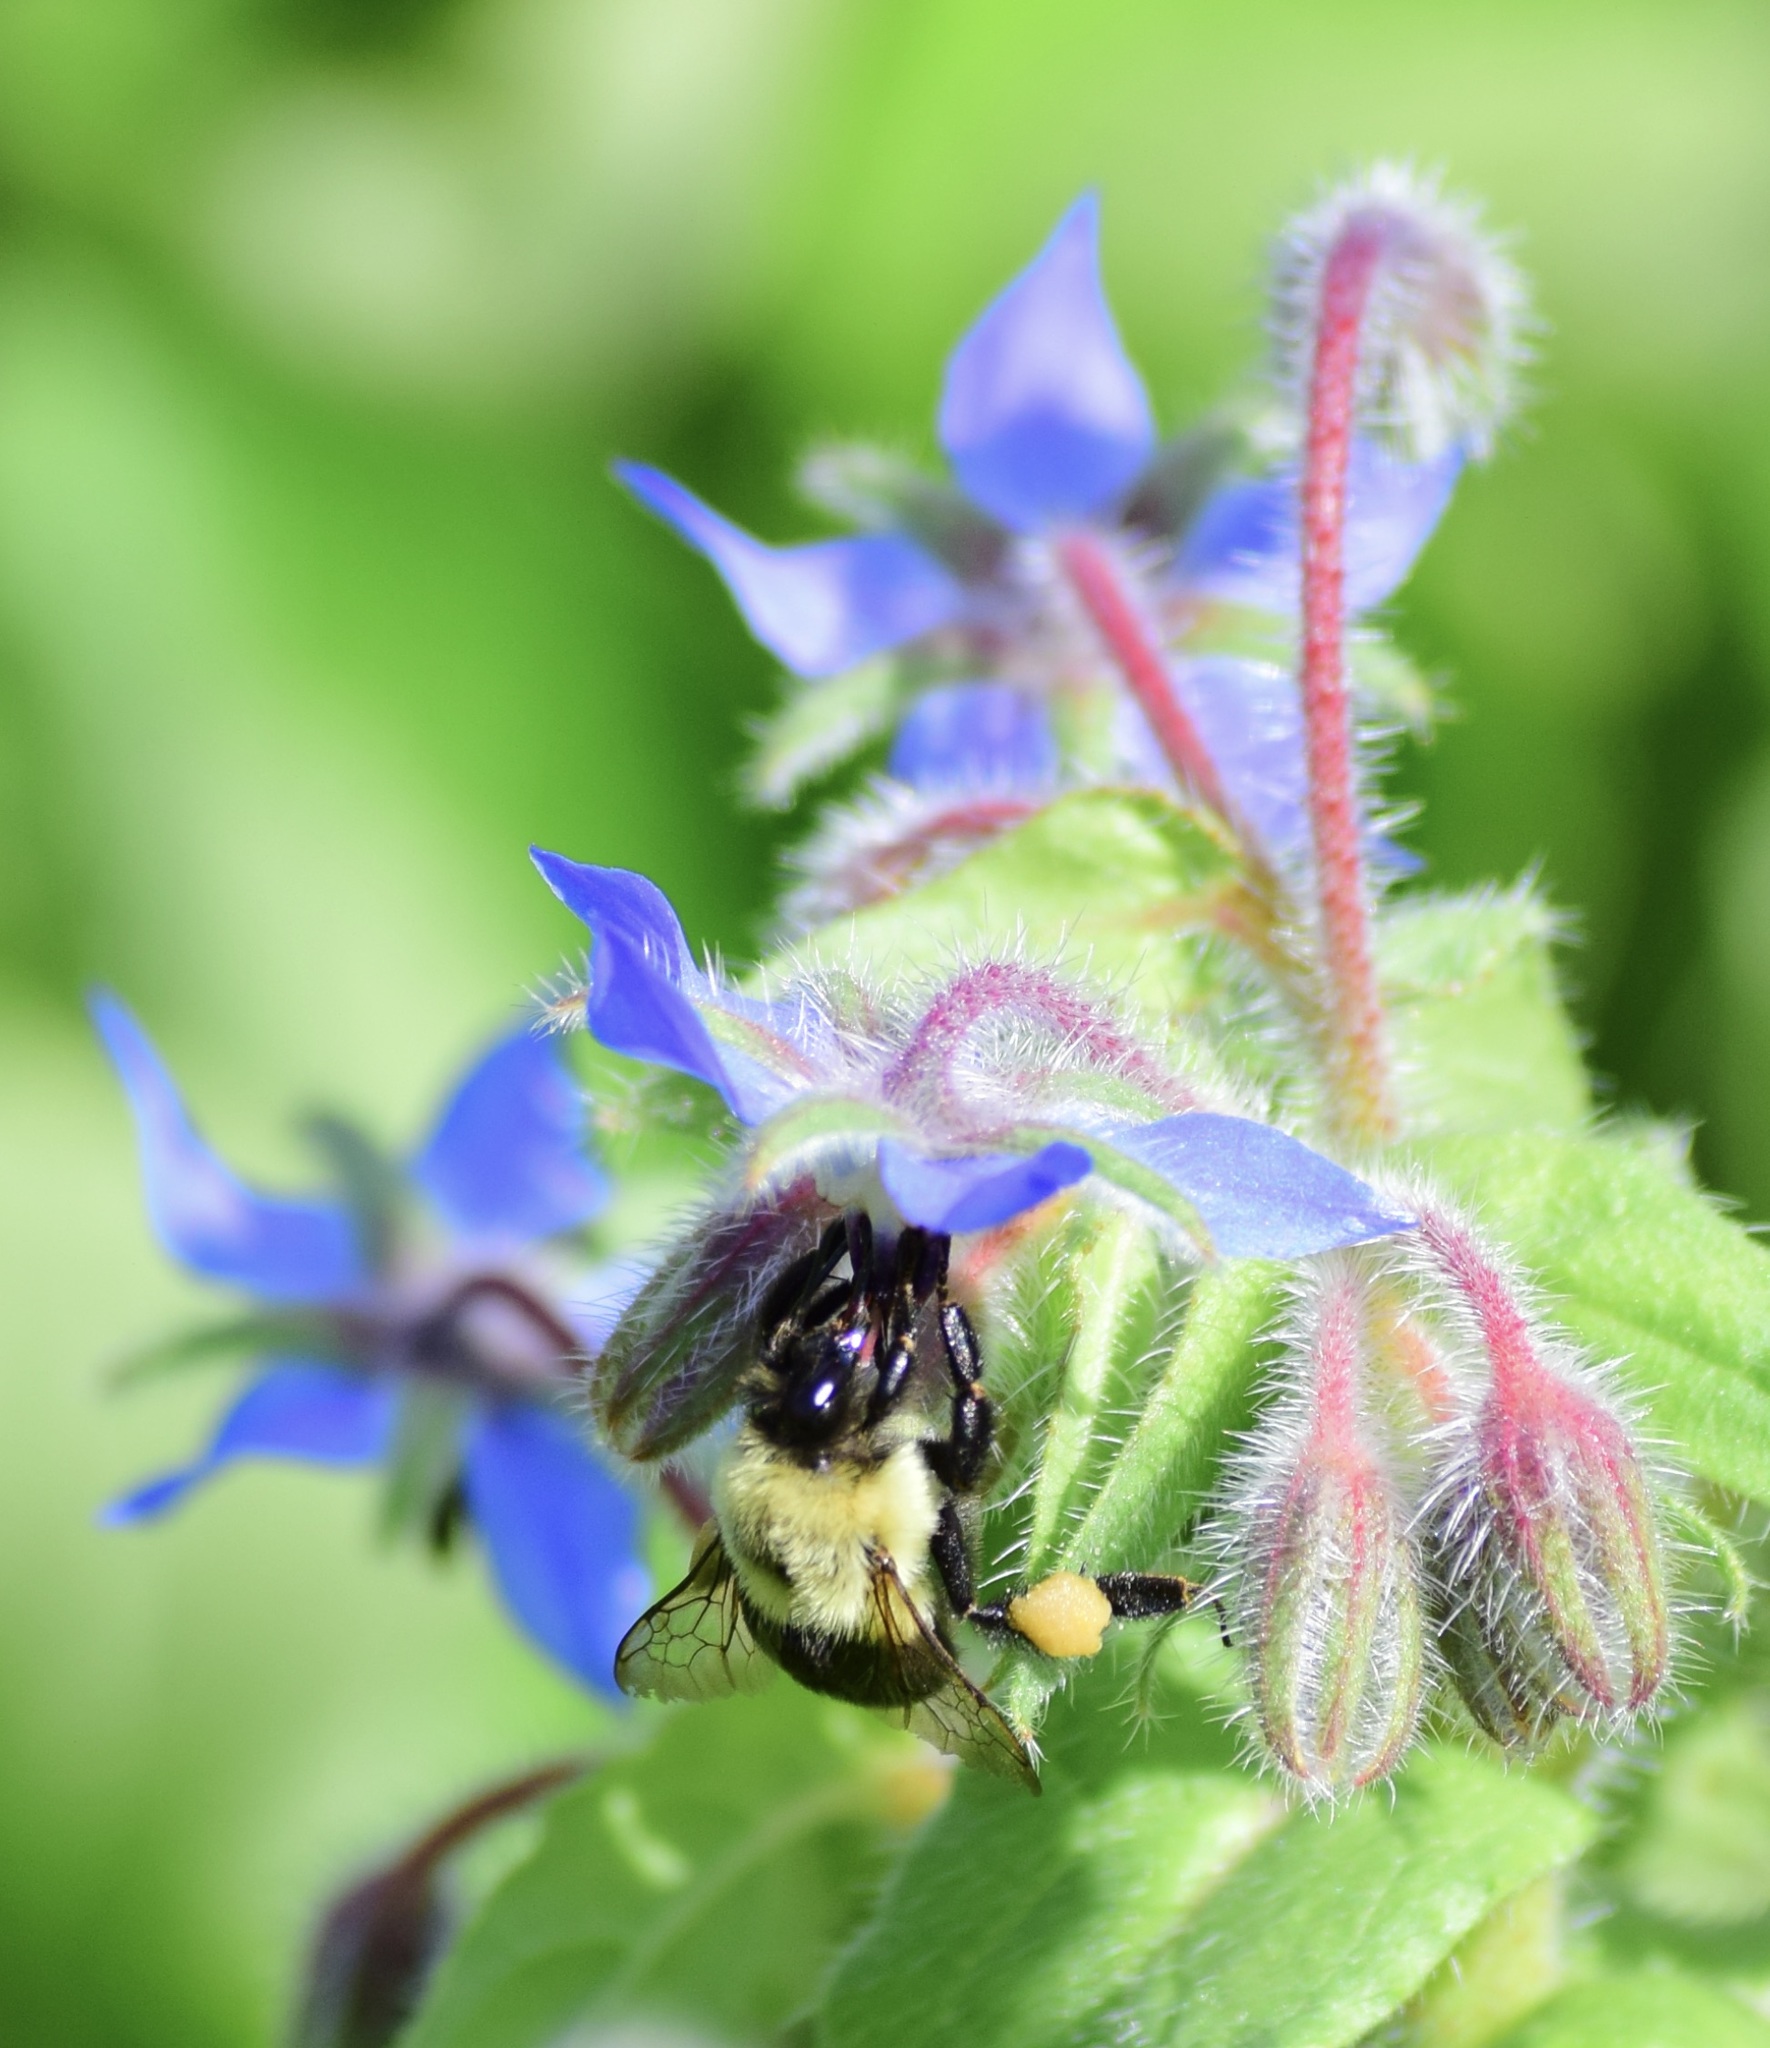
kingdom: Animalia
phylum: Arthropoda
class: Insecta
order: Hymenoptera
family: Apidae
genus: Bombus
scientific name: Bombus impatiens
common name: Common eastern bumble bee
